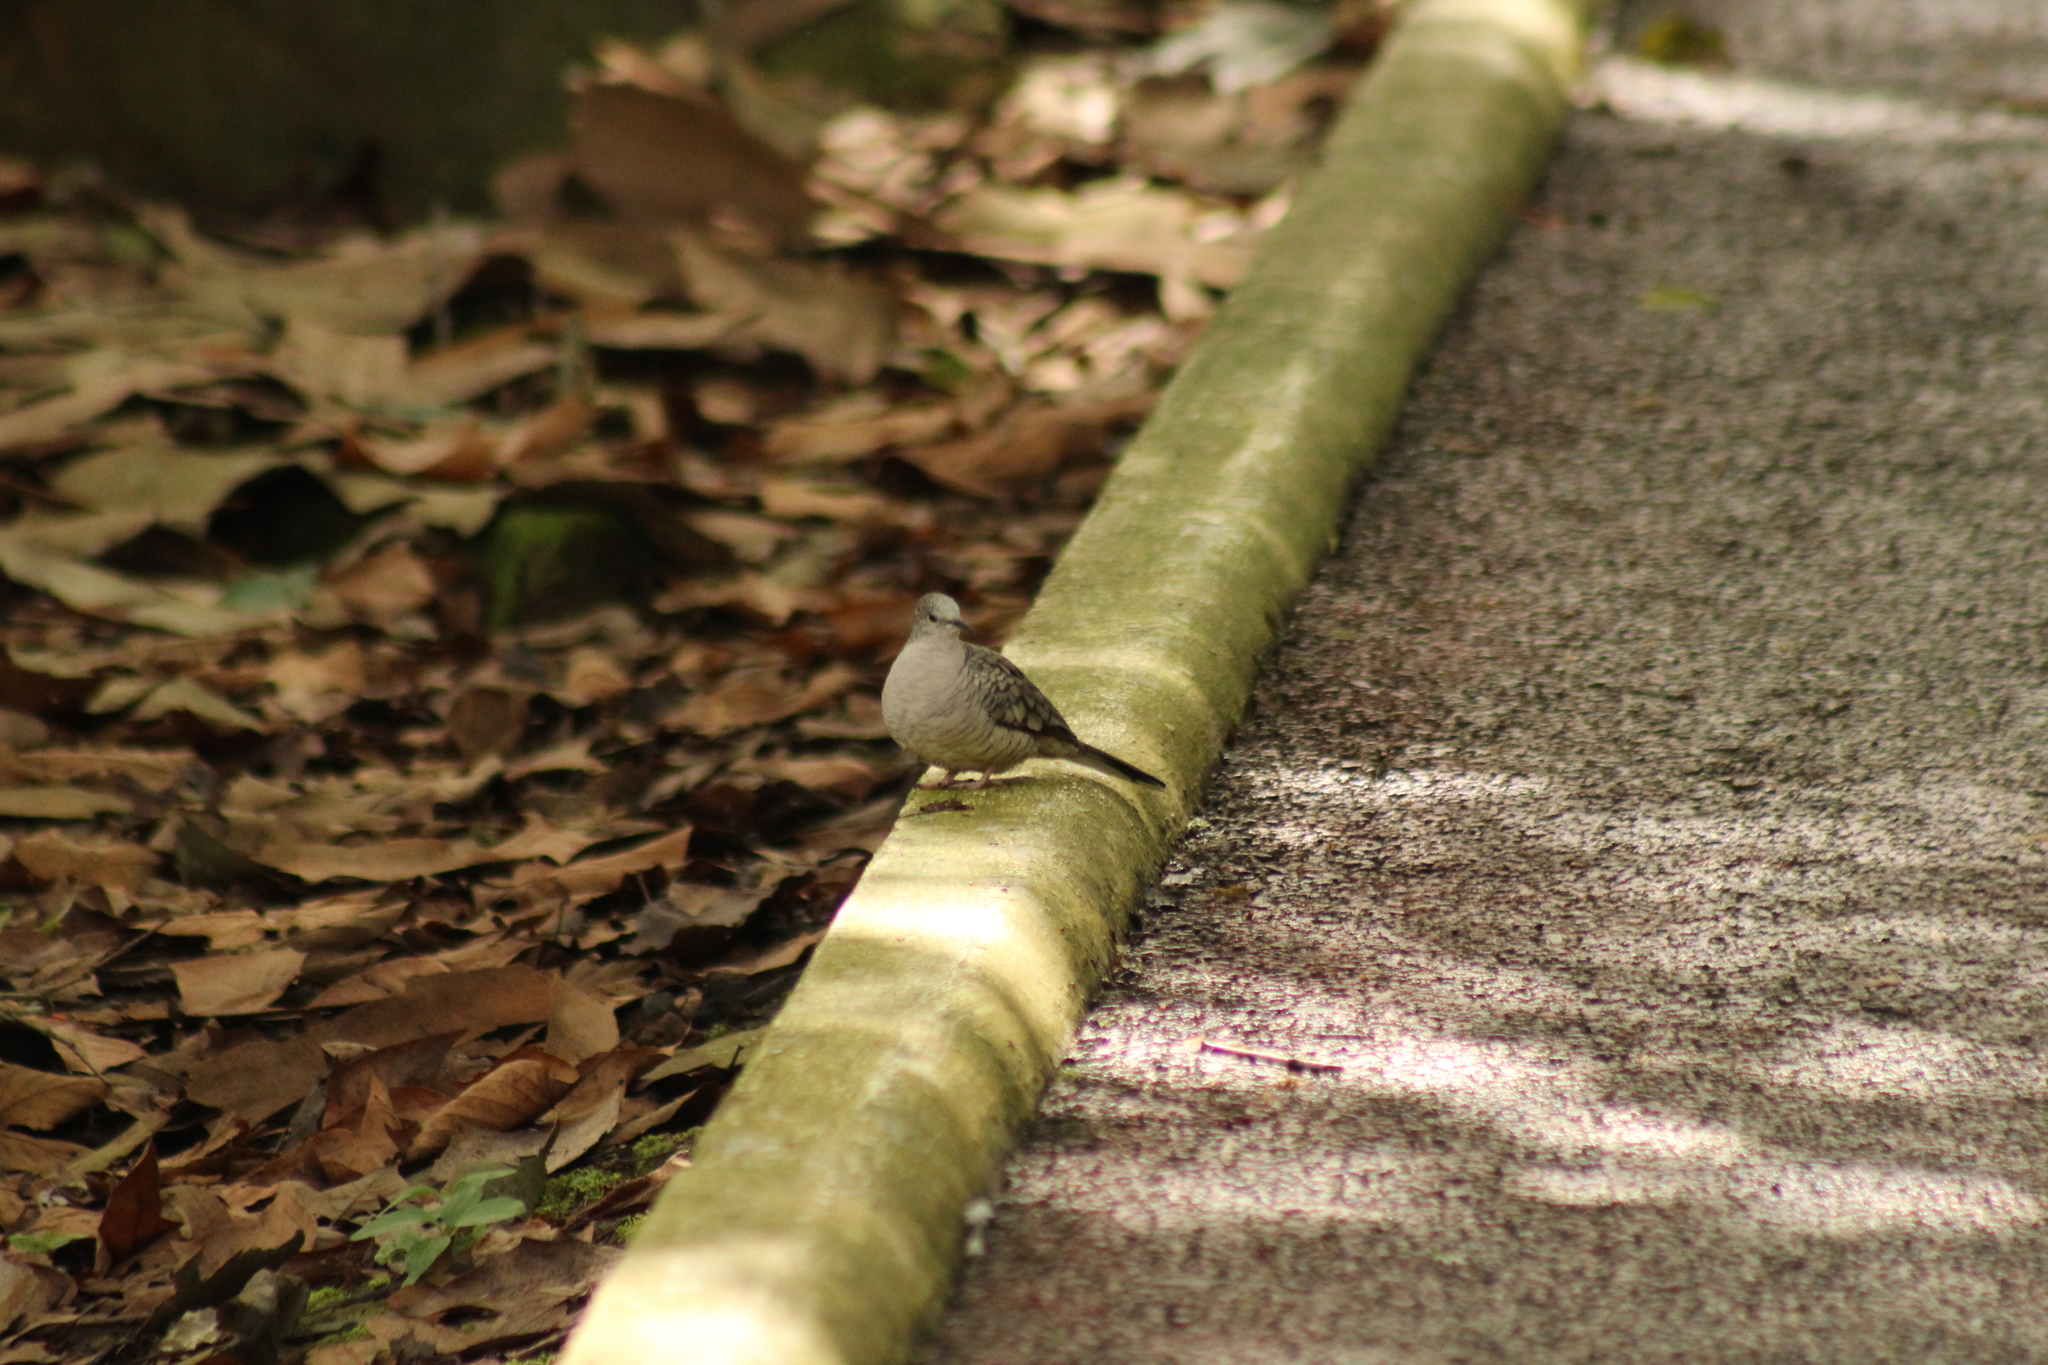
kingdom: Animalia
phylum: Chordata
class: Aves
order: Columbiformes
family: Columbidae
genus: Columbina
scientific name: Columbina inca
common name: Inca dove
